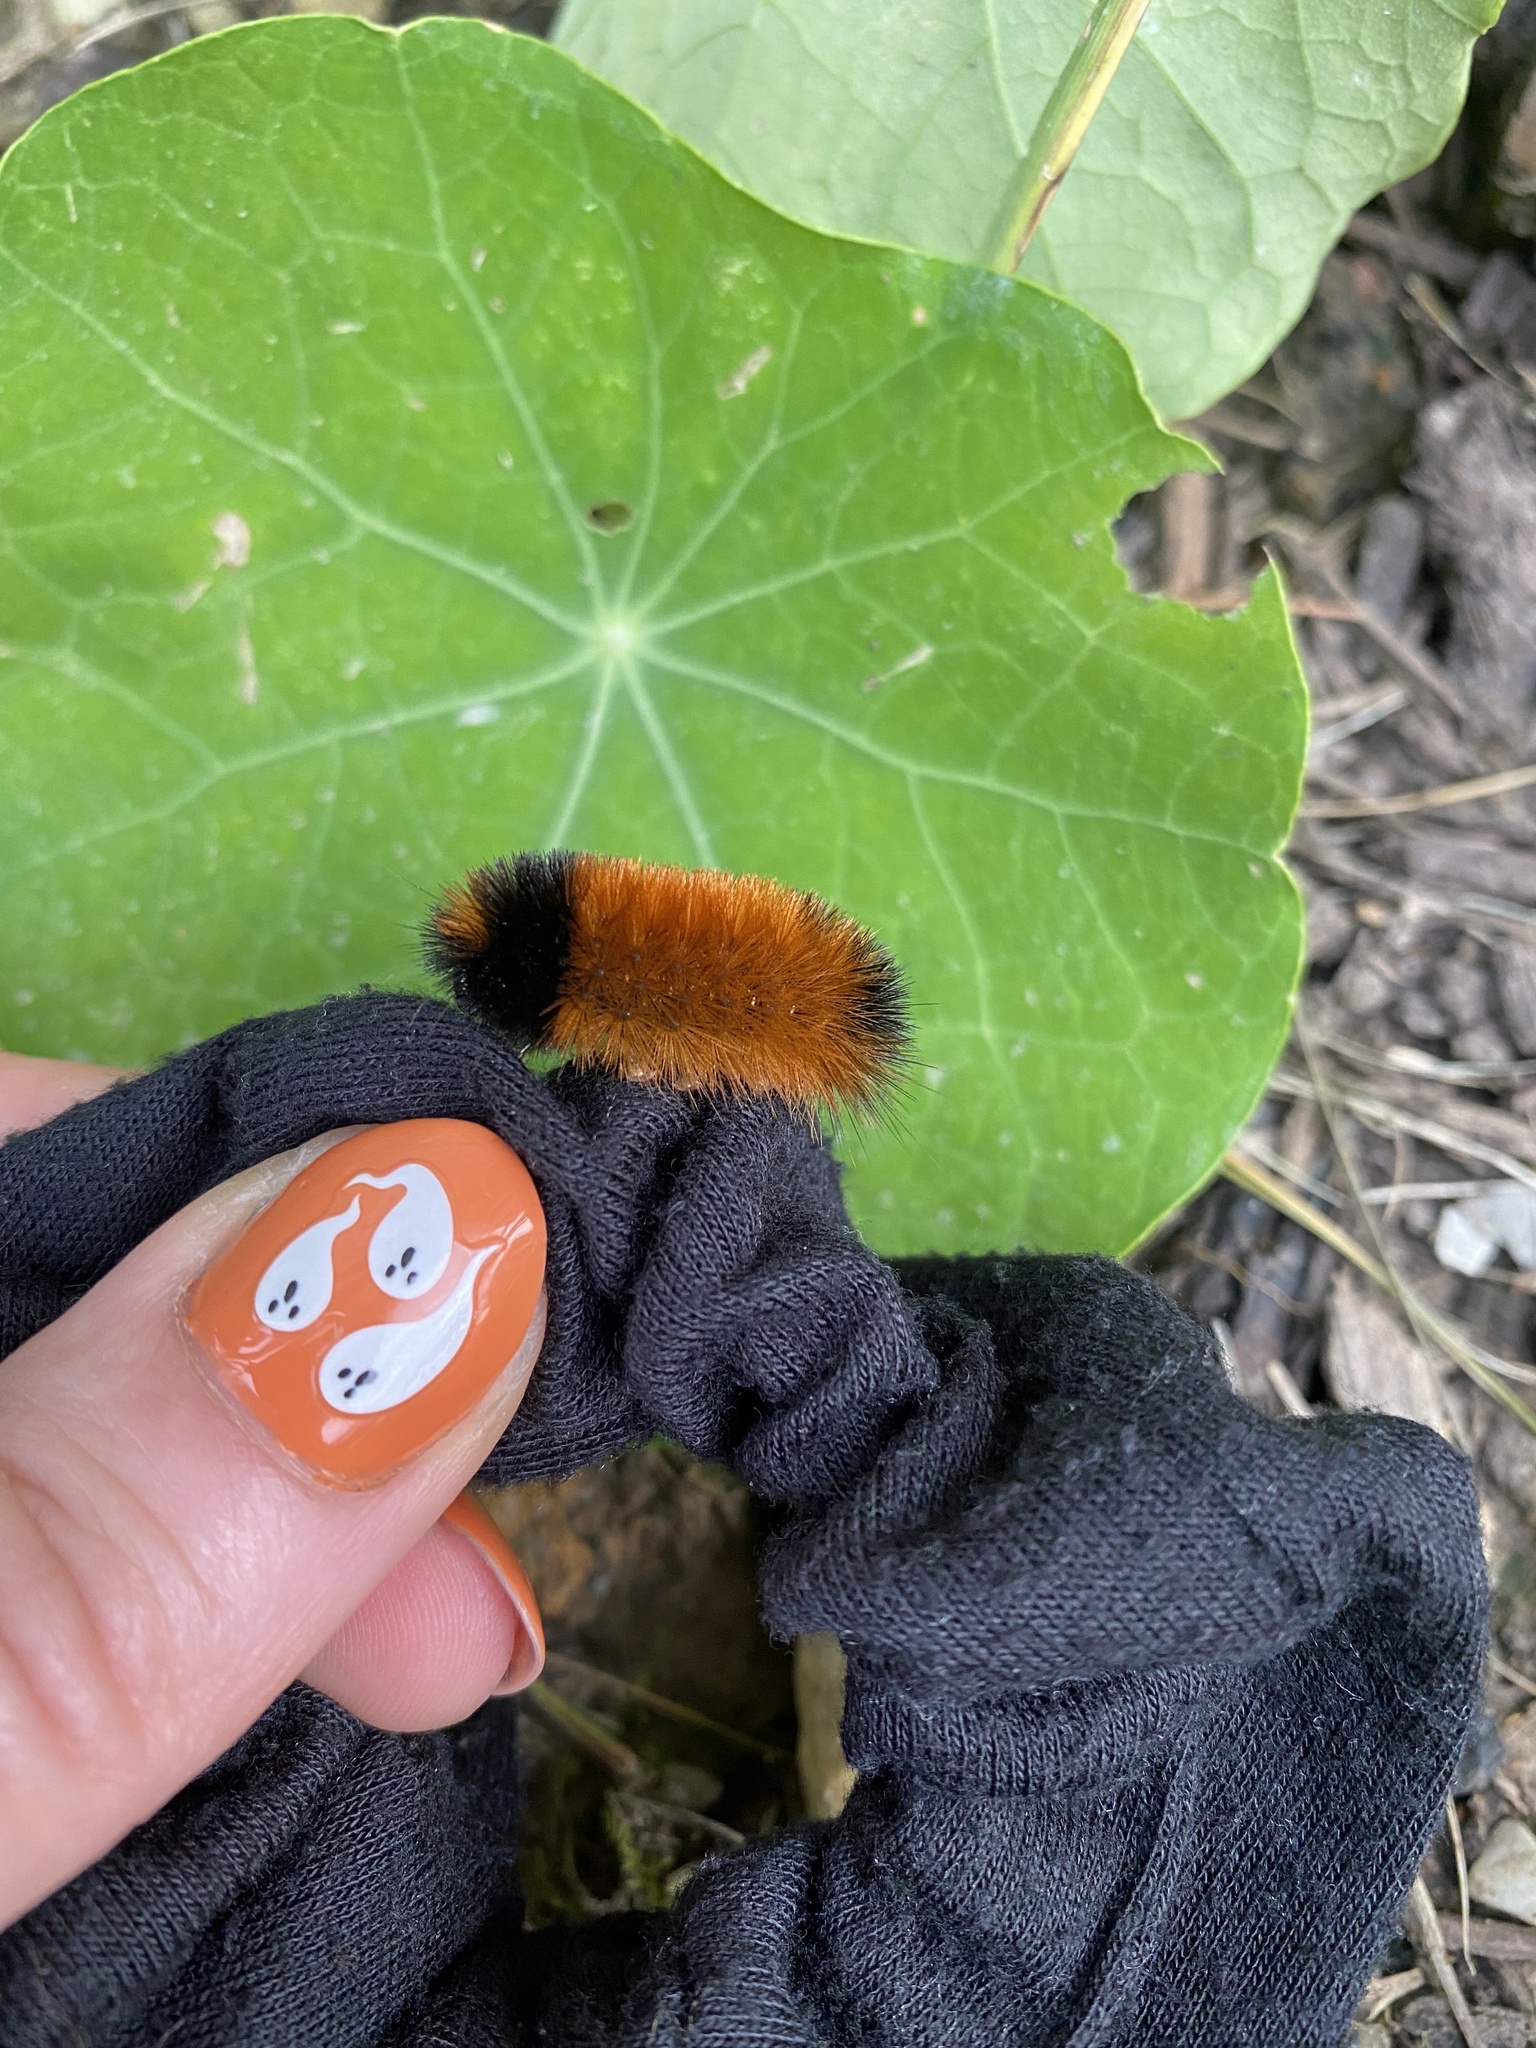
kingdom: Animalia
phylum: Arthropoda
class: Insecta
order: Lepidoptera
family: Erebidae
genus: Pyrrharctia
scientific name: Pyrrharctia isabella
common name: Isabella tiger moth
